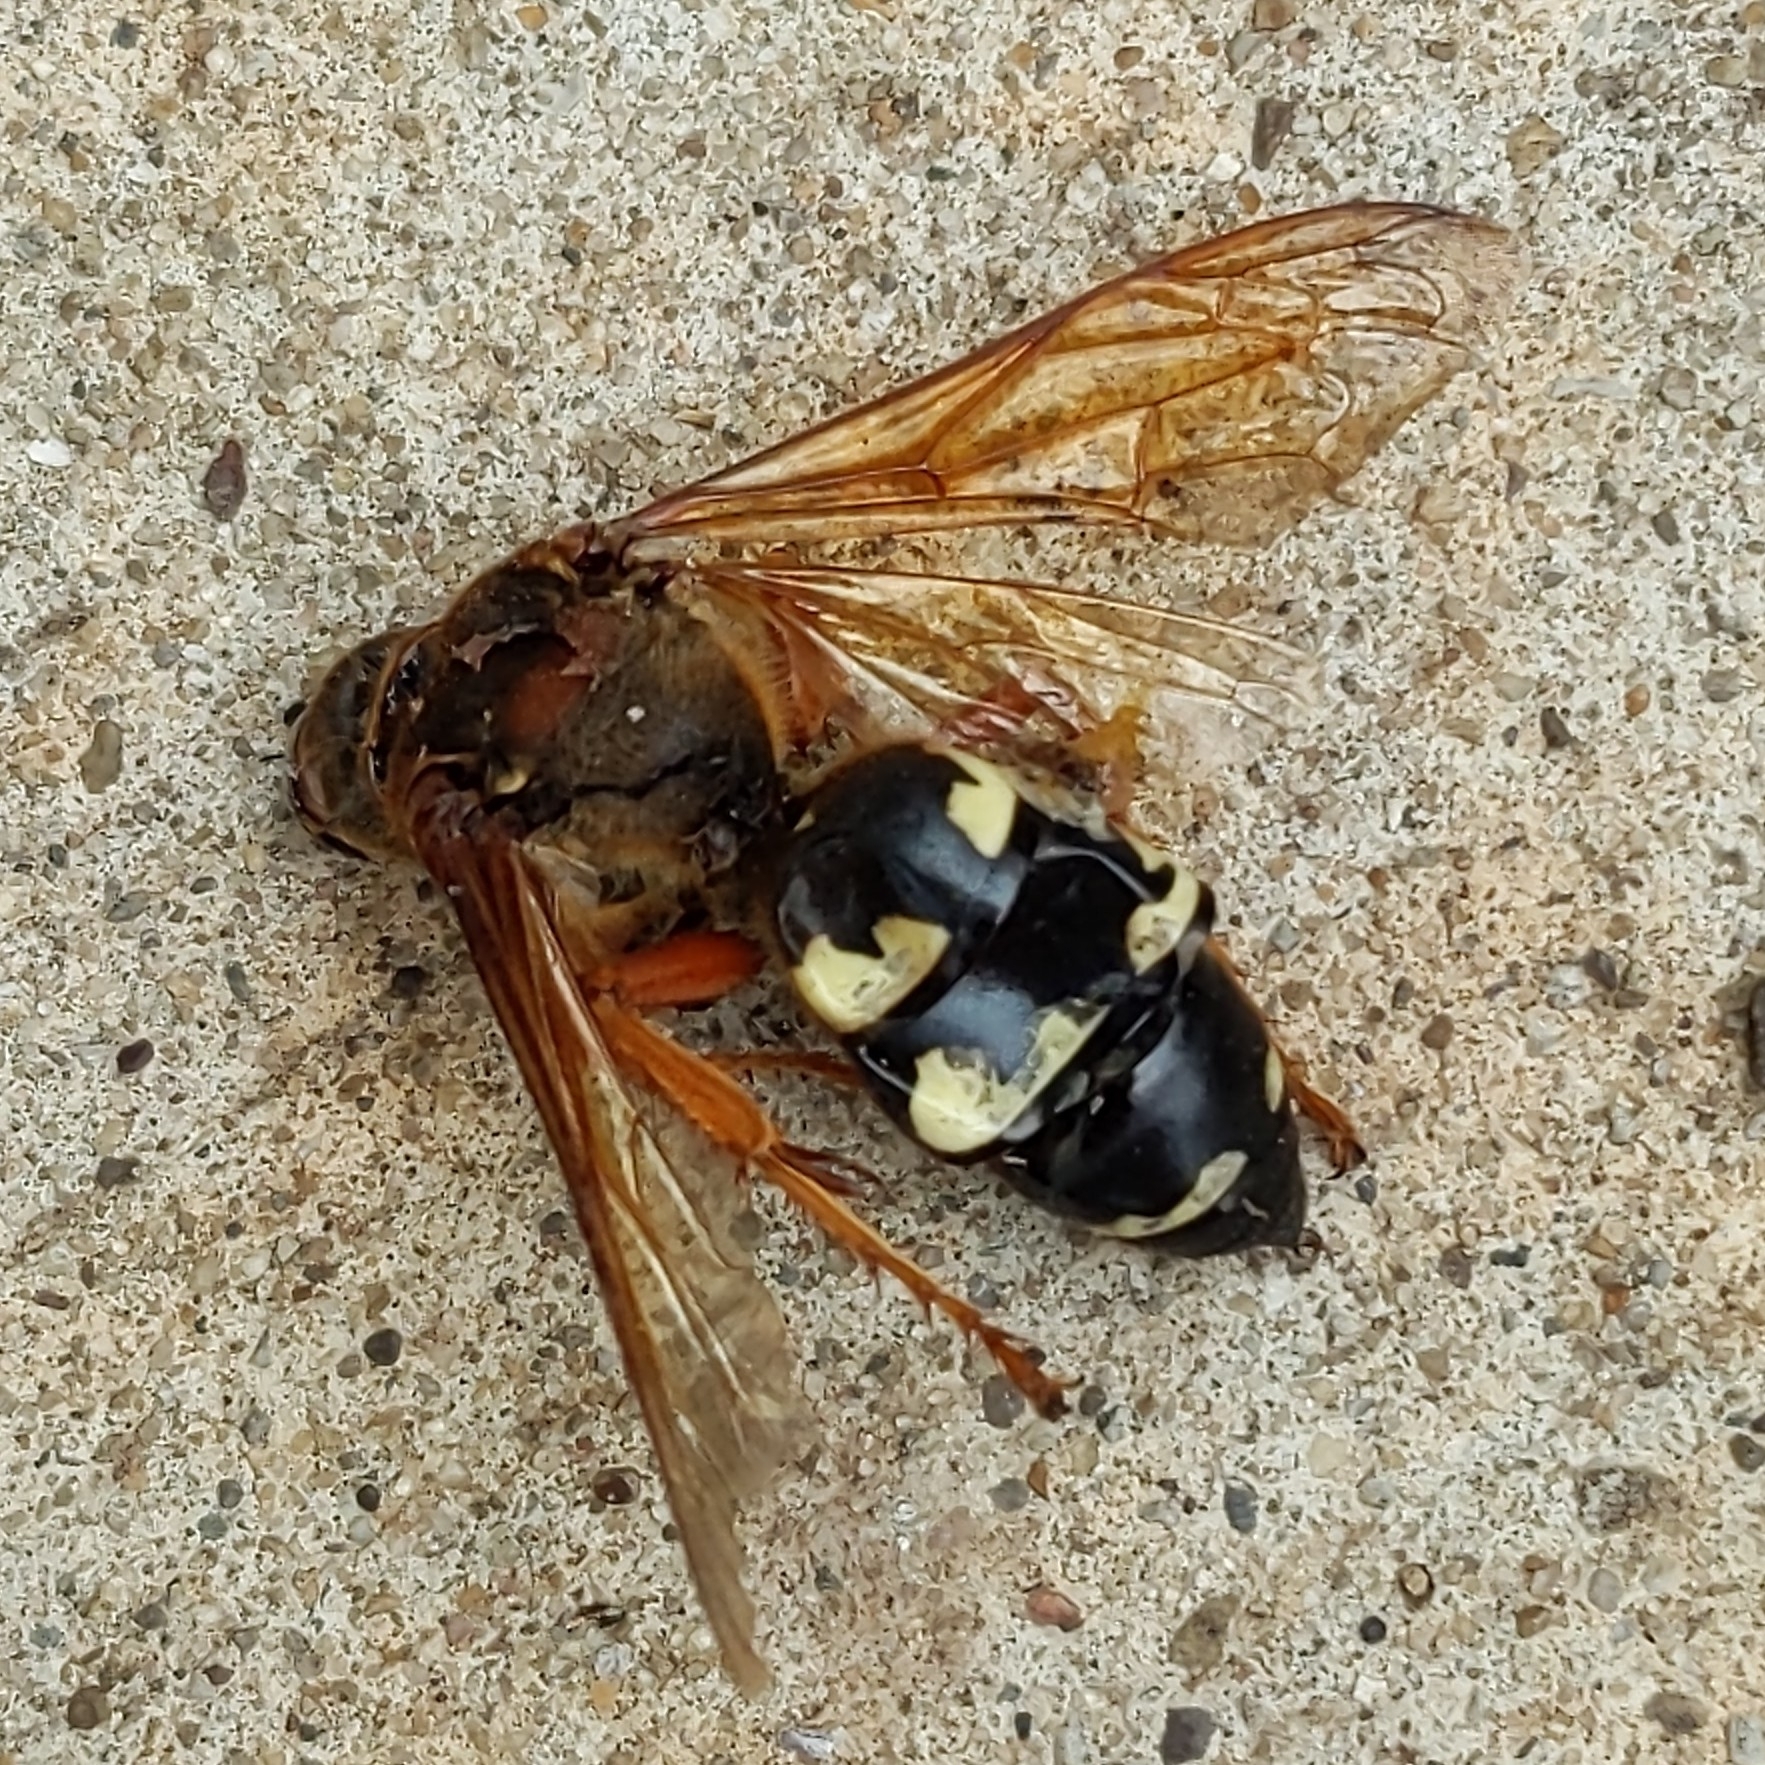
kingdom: Animalia
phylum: Arthropoda
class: Insecta
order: Hymenoptera
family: Crabronidae
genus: Sphecius
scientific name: Sphecius speciosus
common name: Cicada killer
